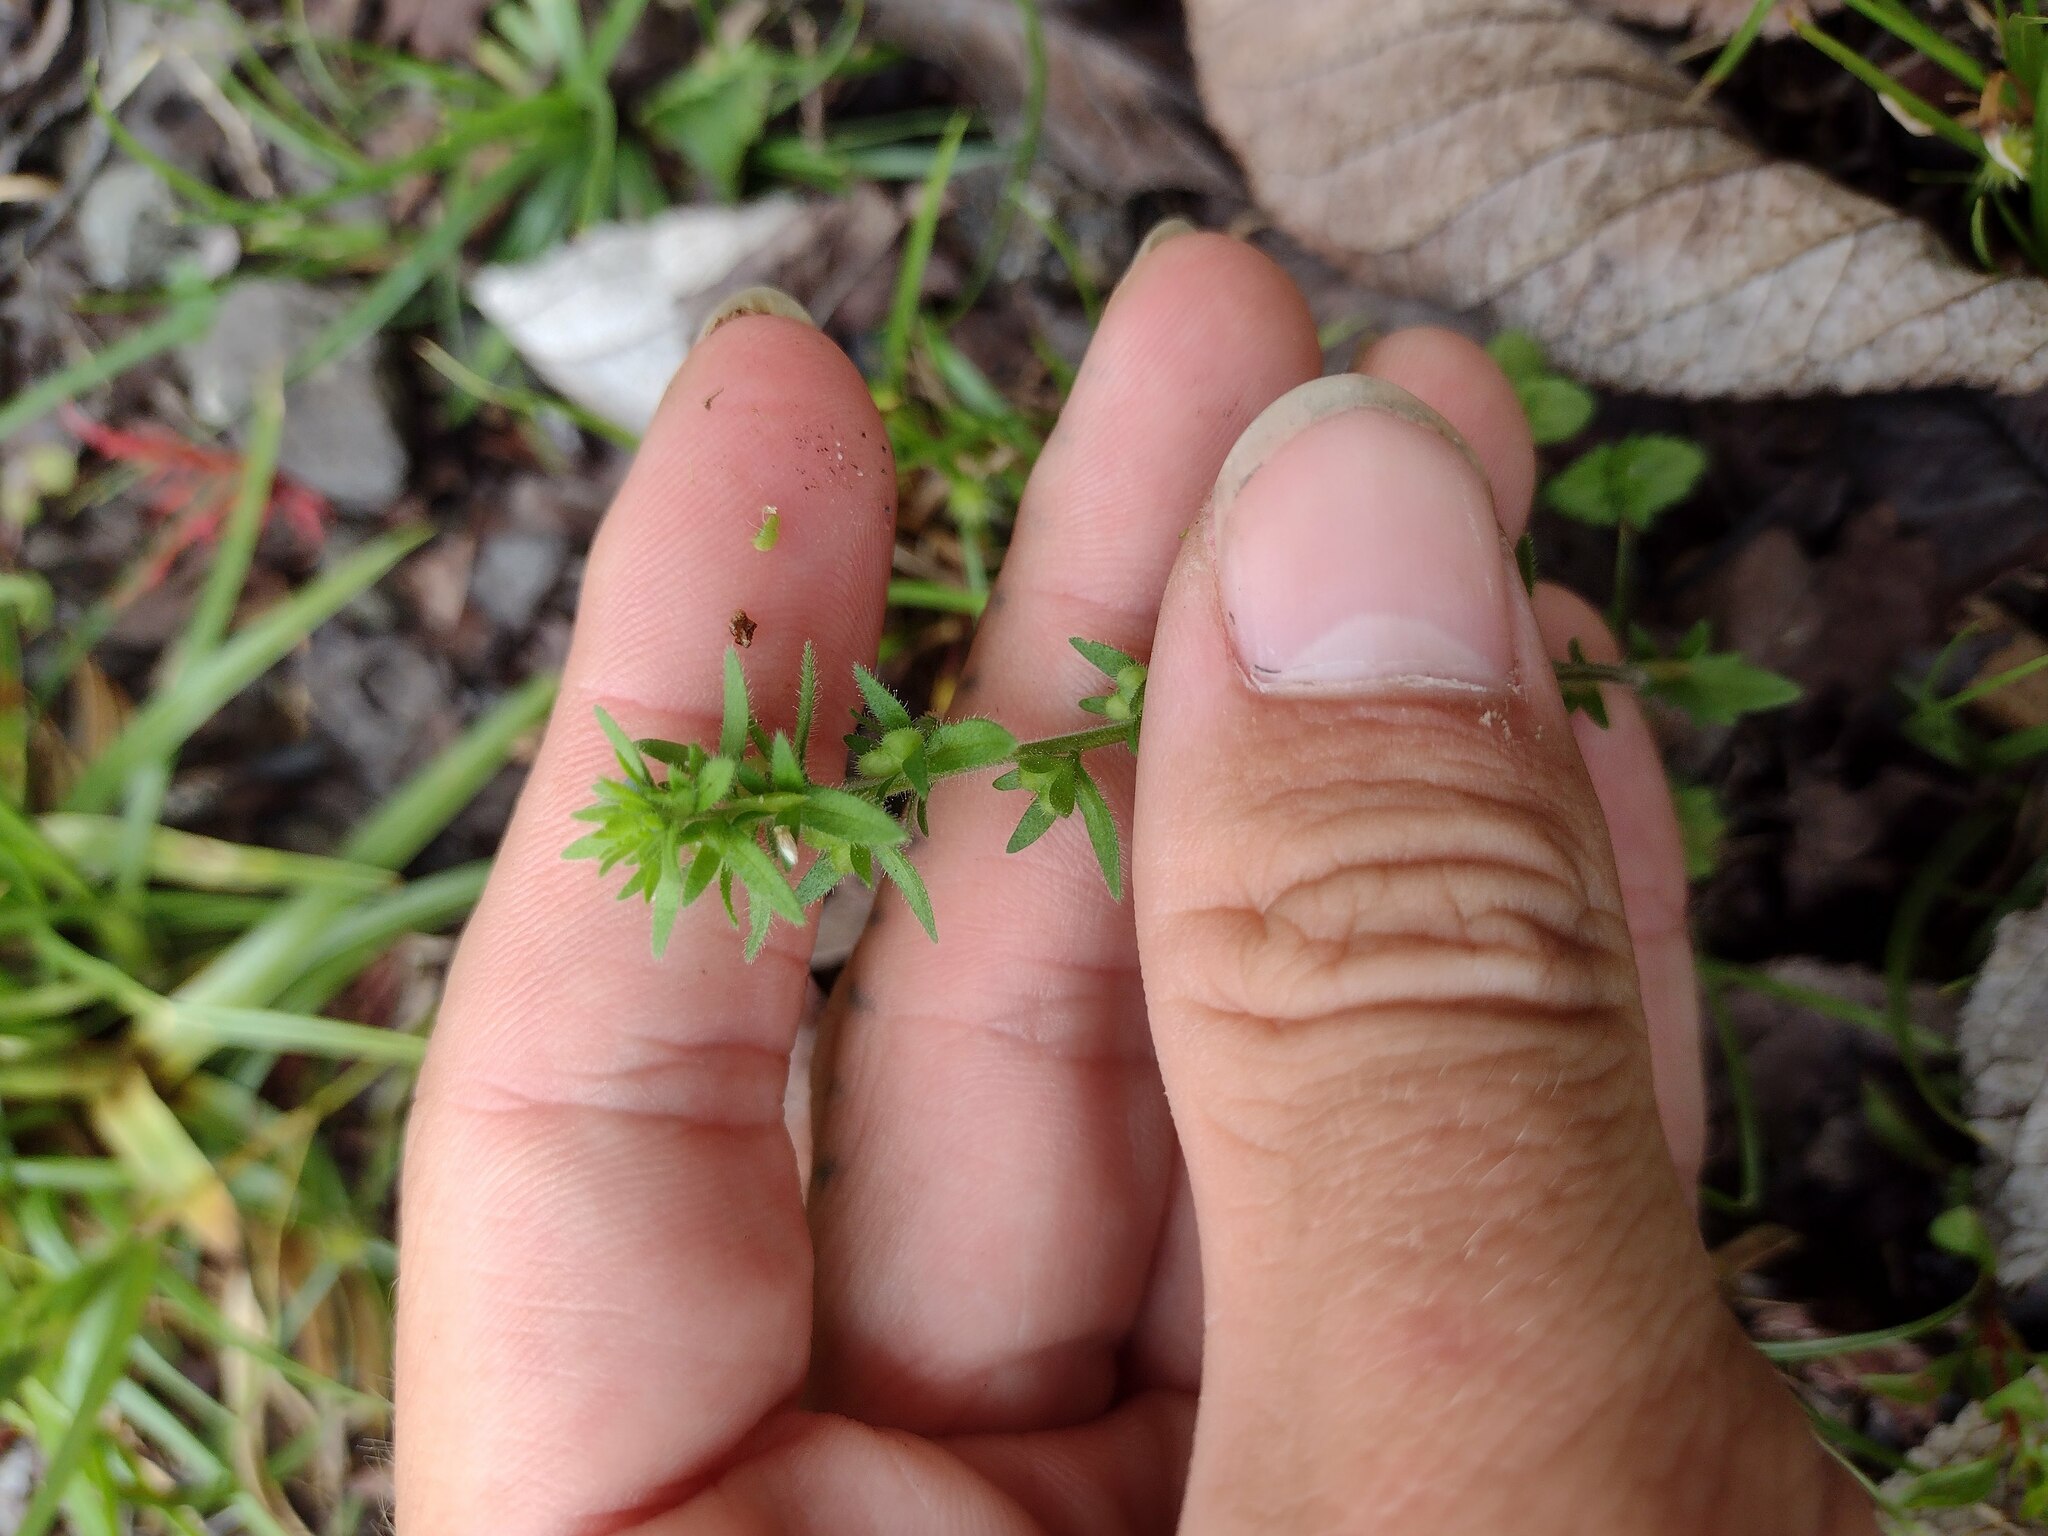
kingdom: Plantae
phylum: Tracheophyta
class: Magnoliopsida
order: Lamiales
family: Plantaginaceae
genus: Veronica
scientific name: Veronica arvensis
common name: Corn speedwell
